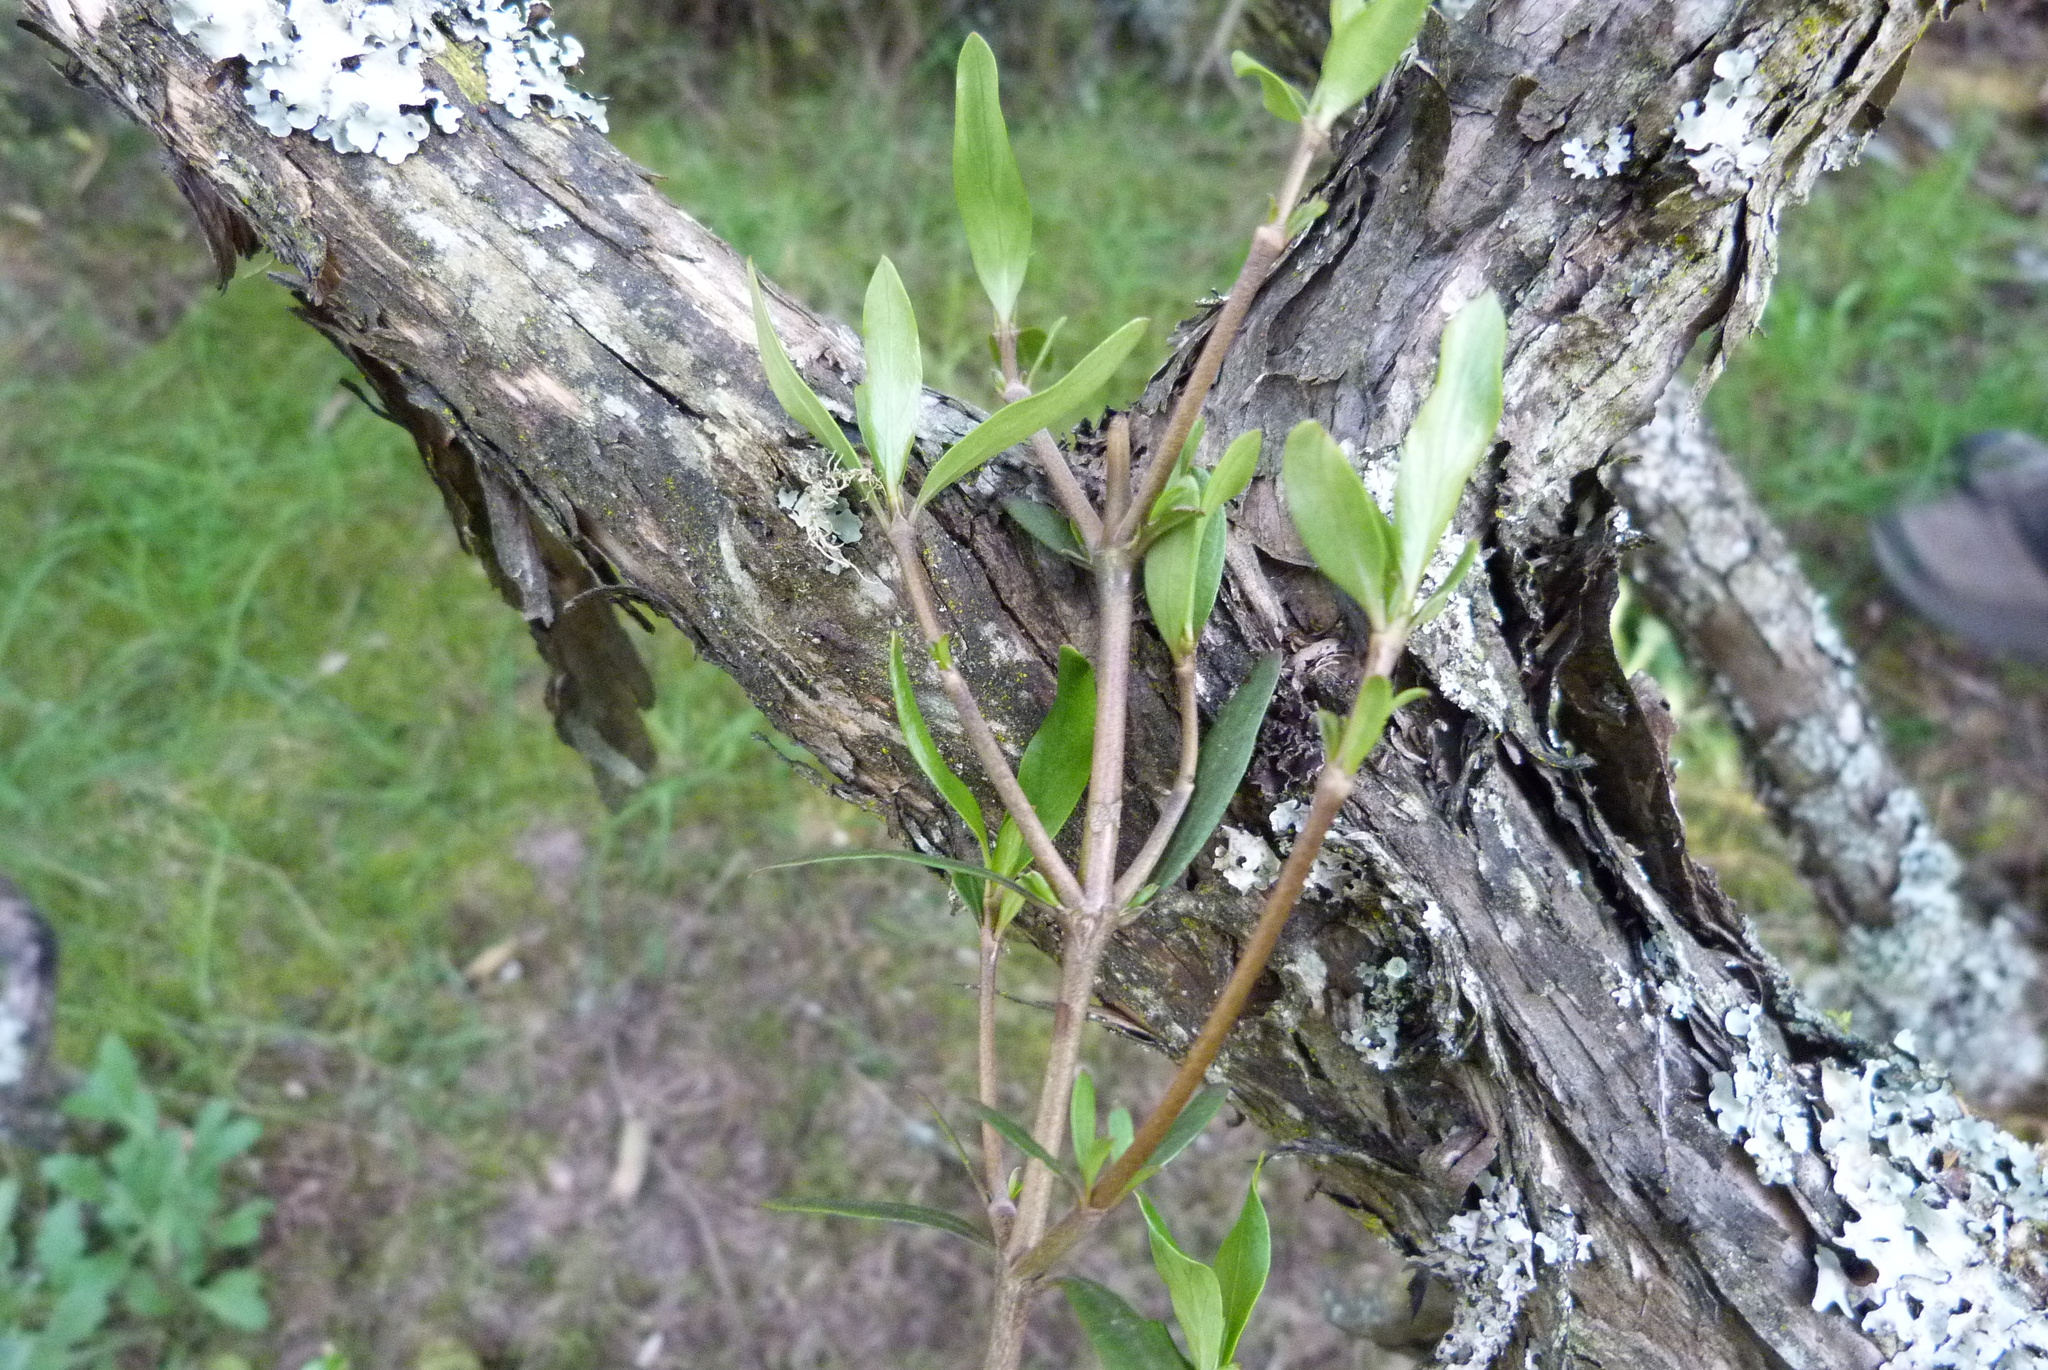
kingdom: Plantae
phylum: Tracheophyta
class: Magnoliopsida
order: Gentianales
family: Rubiaceae
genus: Coprosma
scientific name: Coprosma cunninghamii
